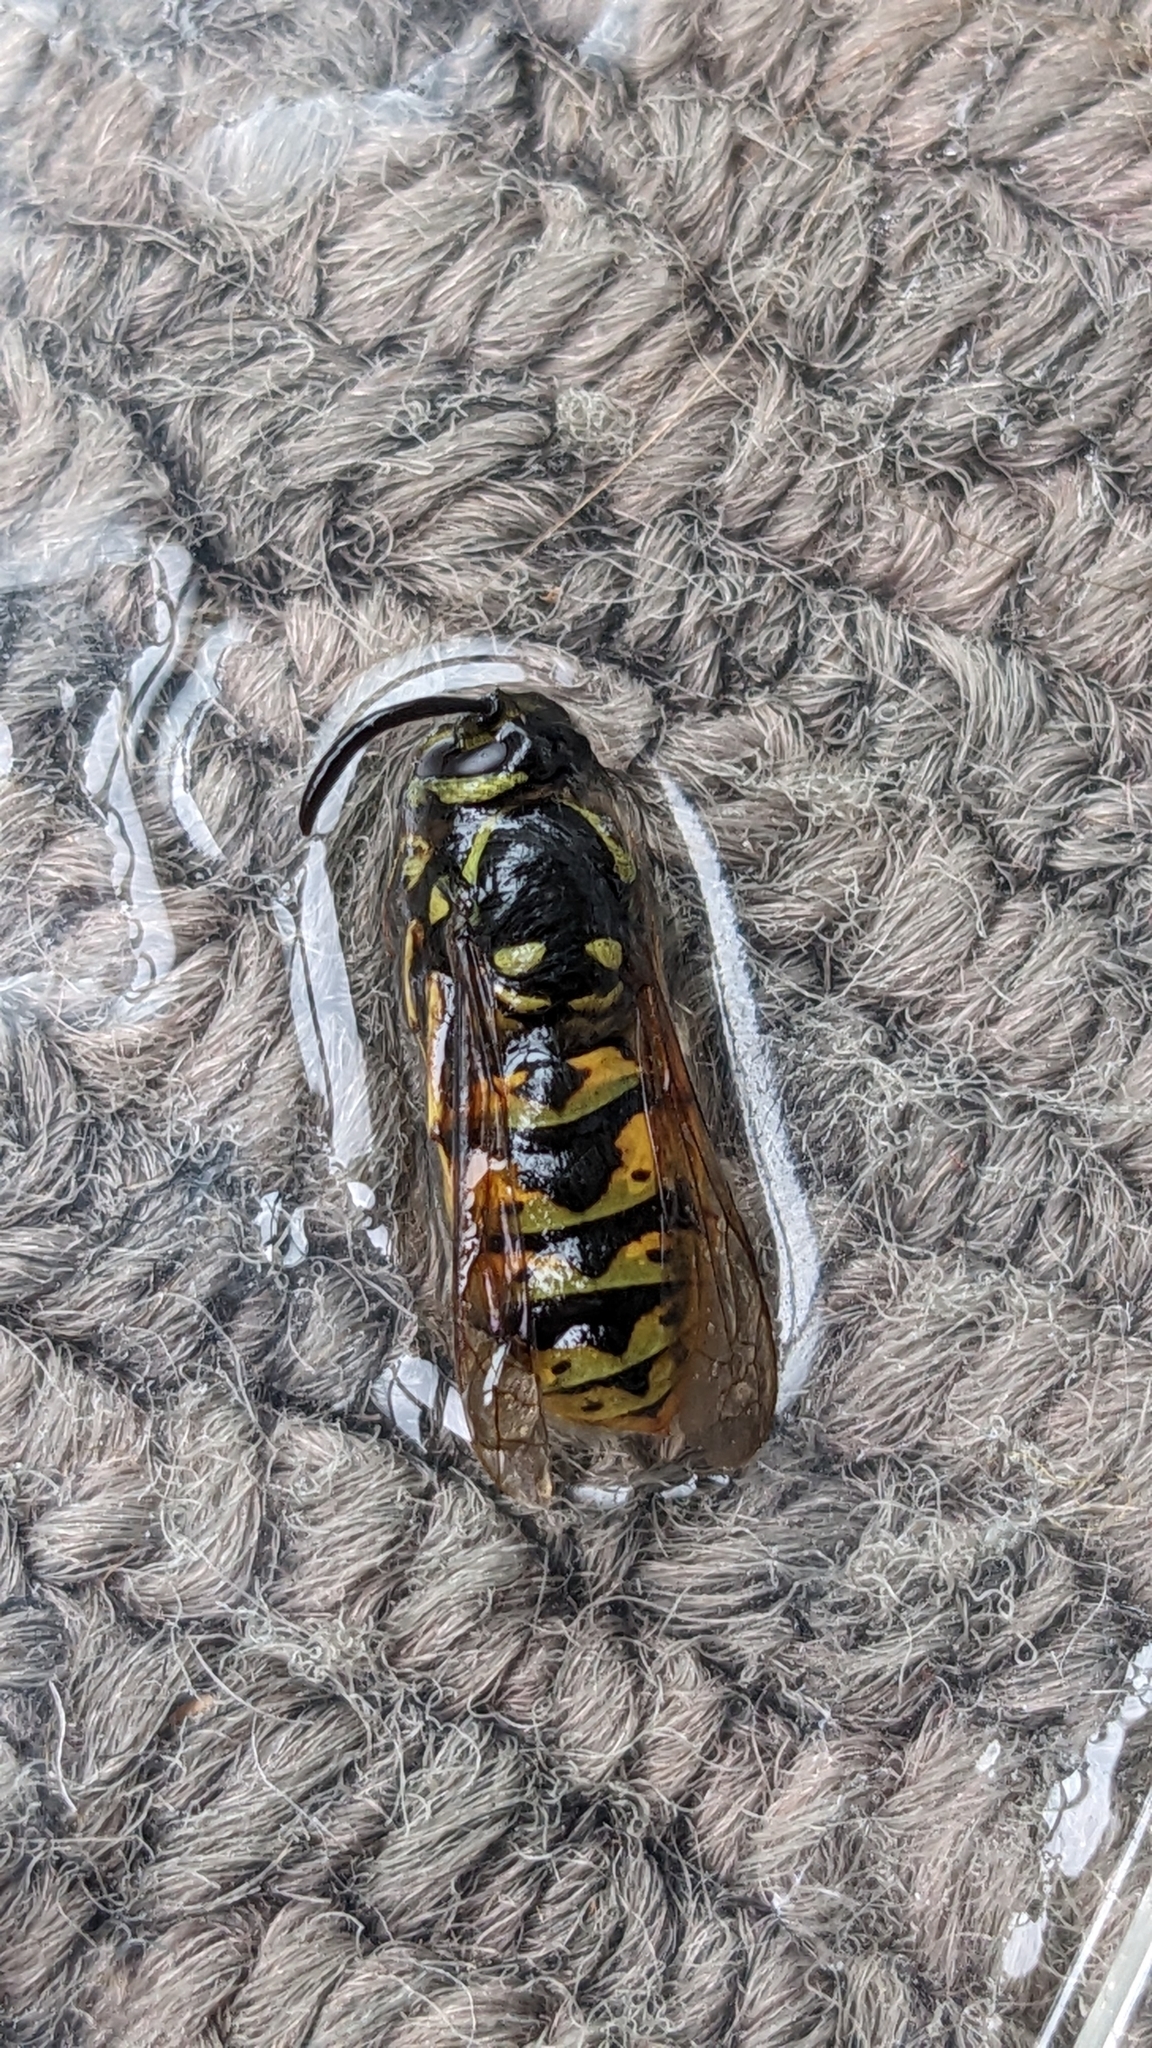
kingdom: Animalia
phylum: Arthropoda
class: Insecta
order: Hymenoptera
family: Vespidae
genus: Vespula
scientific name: Vespula vulgaris
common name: Common wasp
